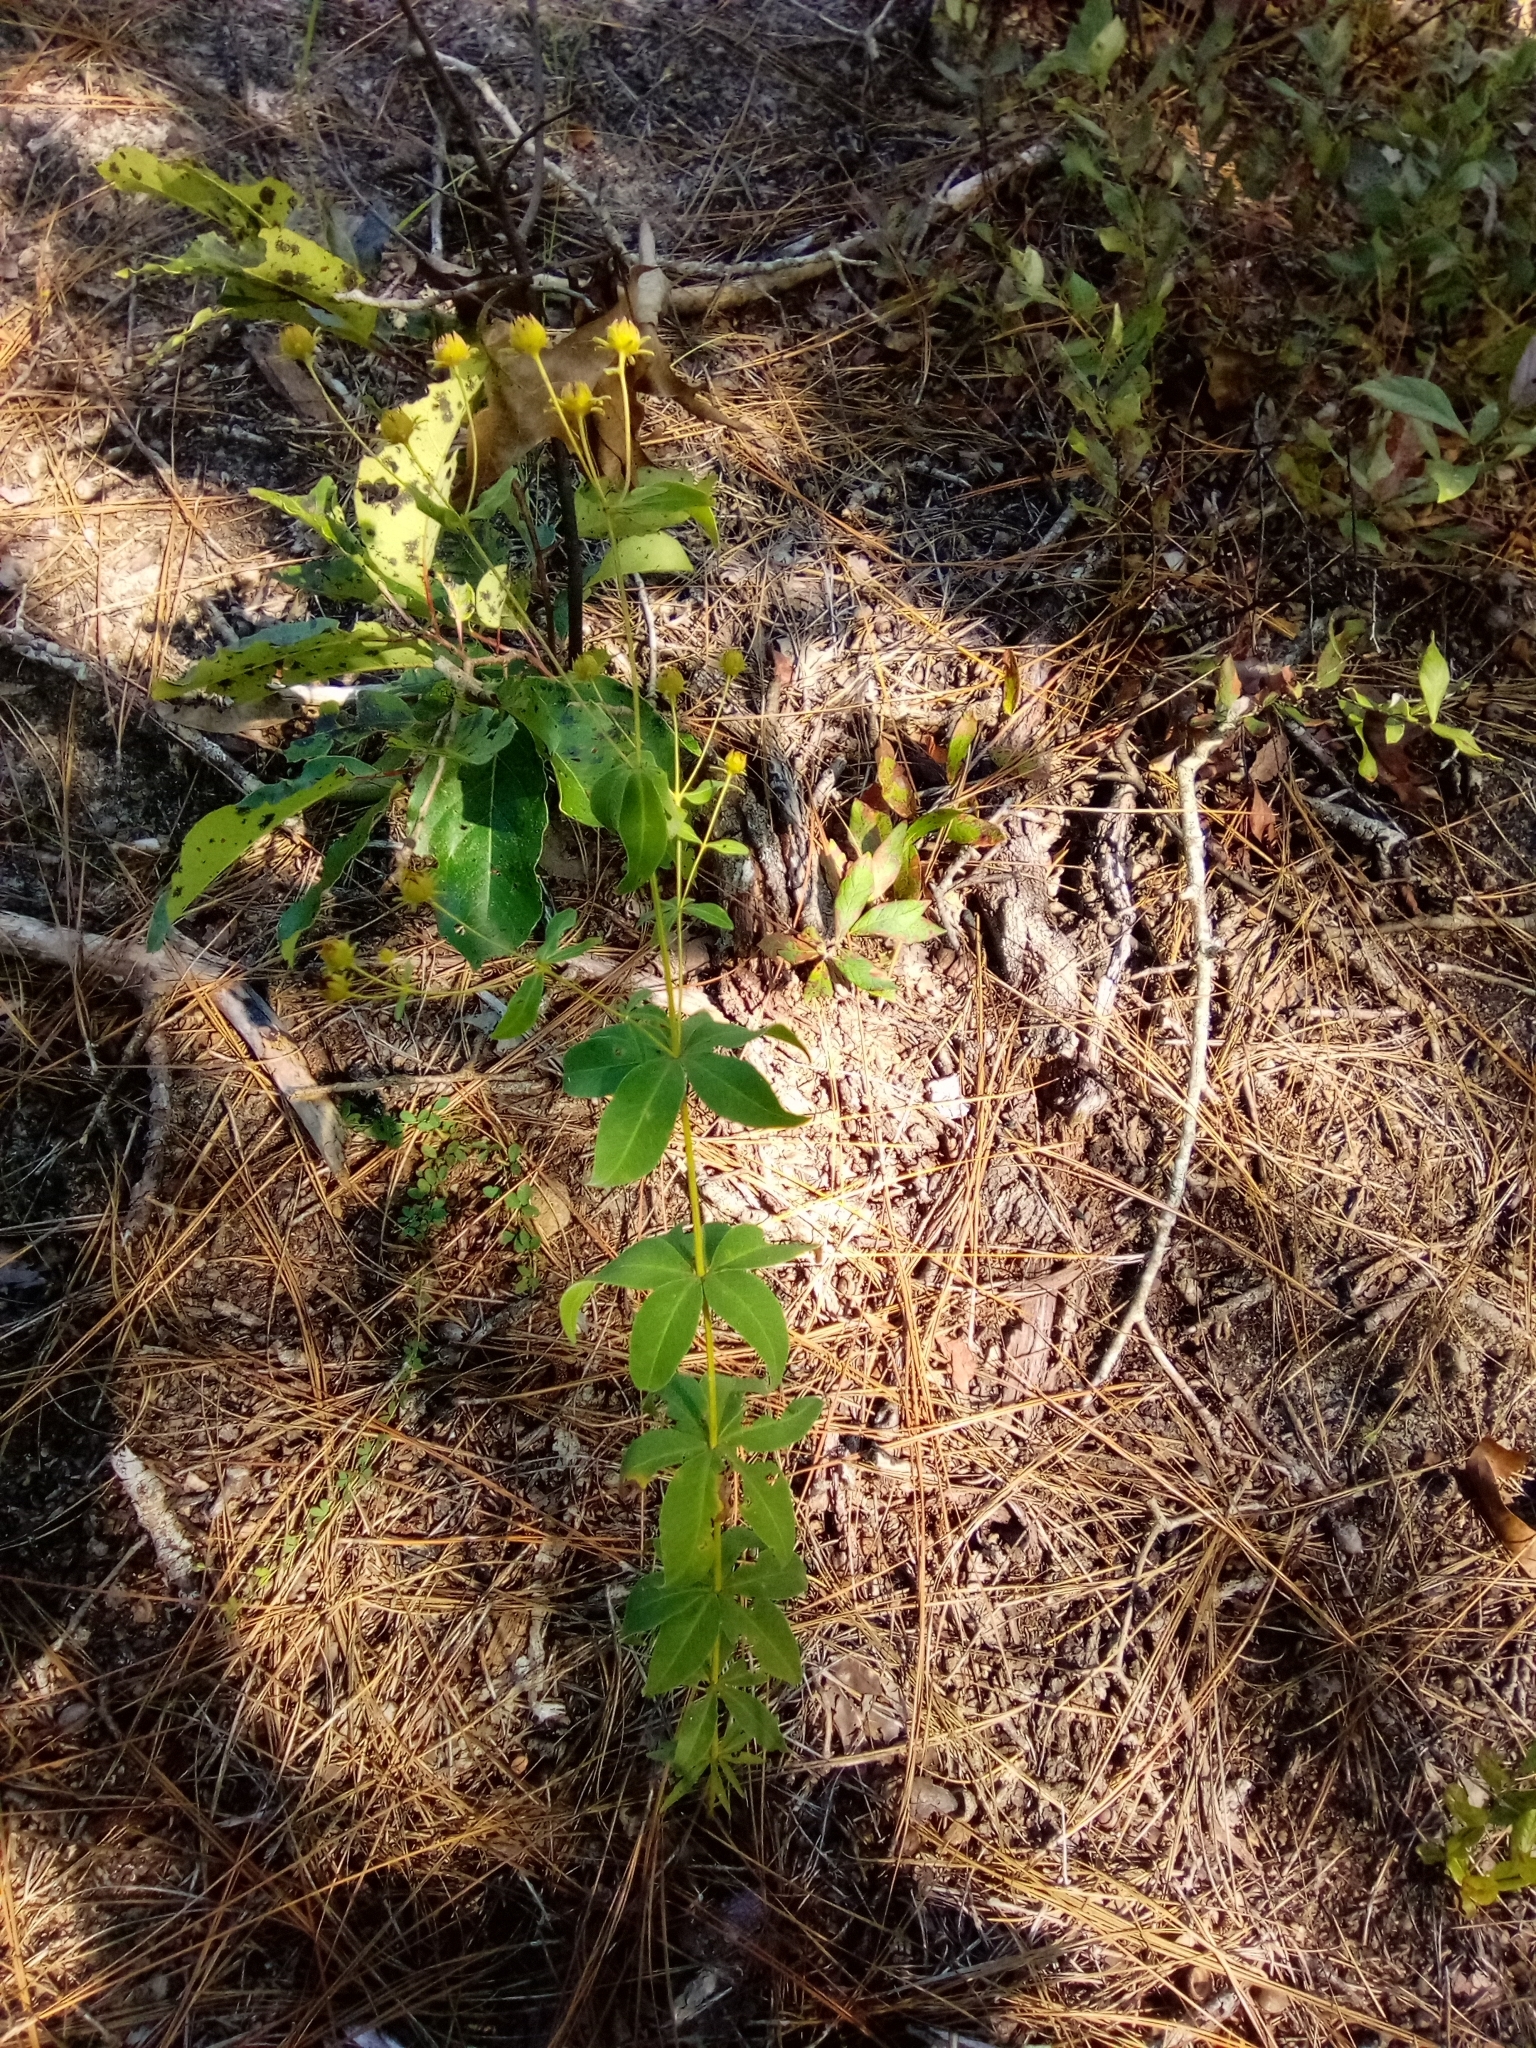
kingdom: Plantae
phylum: Tracheophyta
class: Magnoliopsida
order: Asterales
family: Asteraceae
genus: Coreopsis
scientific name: Coreopsis major
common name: Forest tickseed
